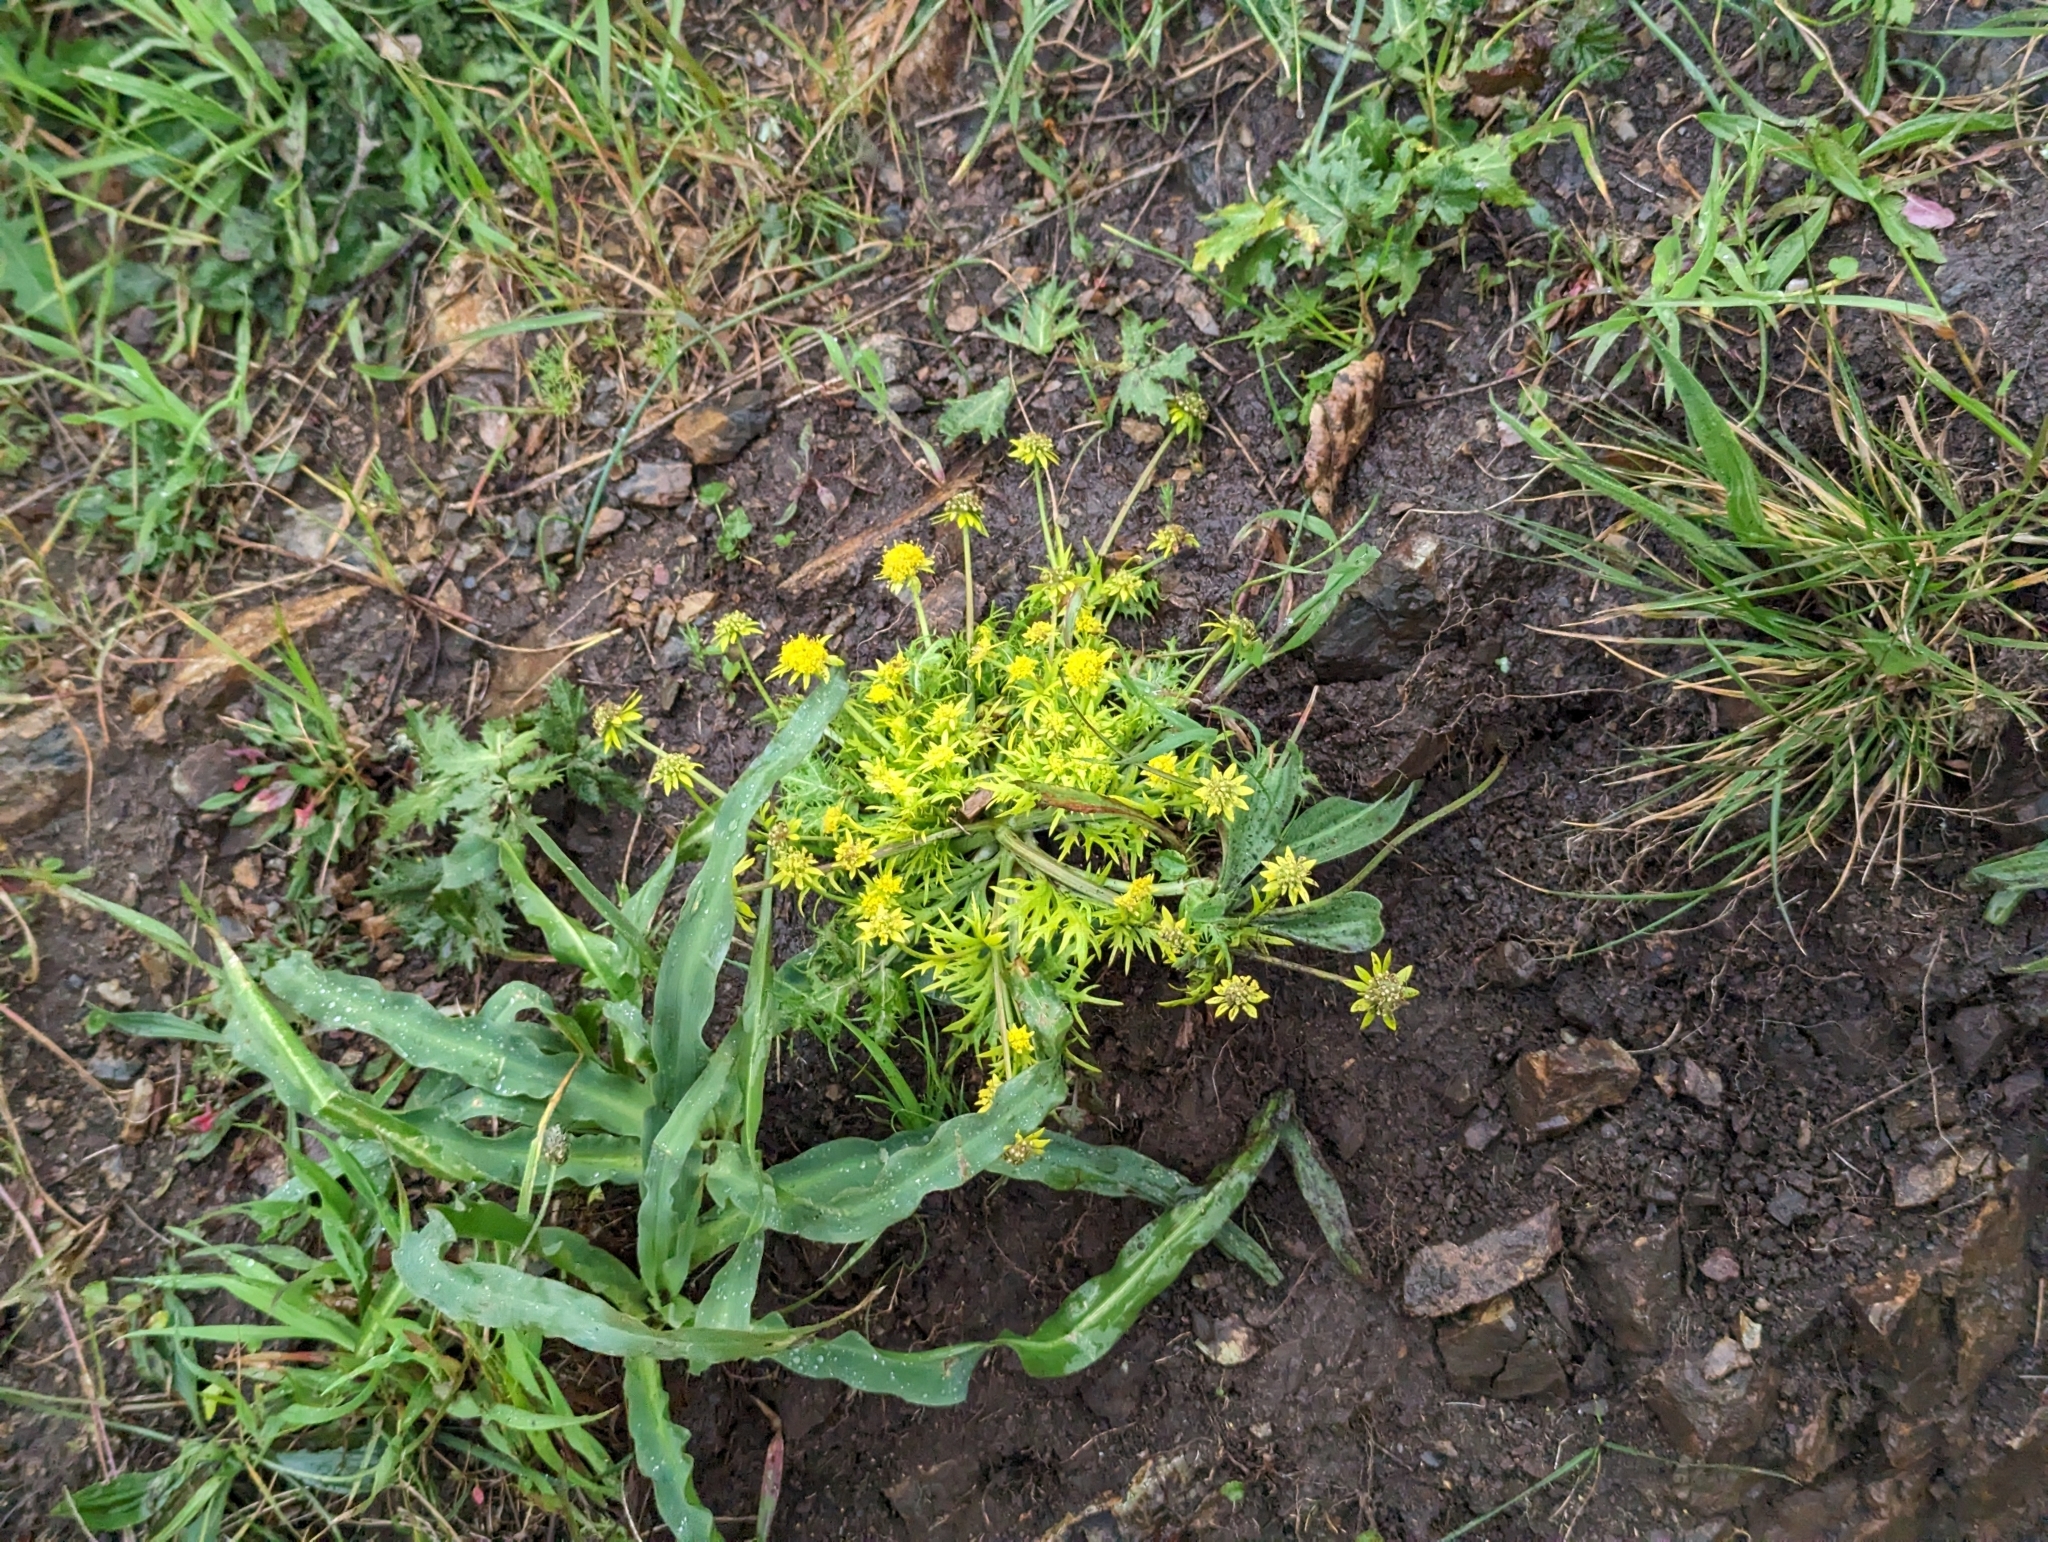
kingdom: Plantae
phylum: Tracheophyta
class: Magnoliopsida
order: Apiales
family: Apiaceae
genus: Sanicula
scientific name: Sanicula arctopoides
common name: Footsteps-of-spring
